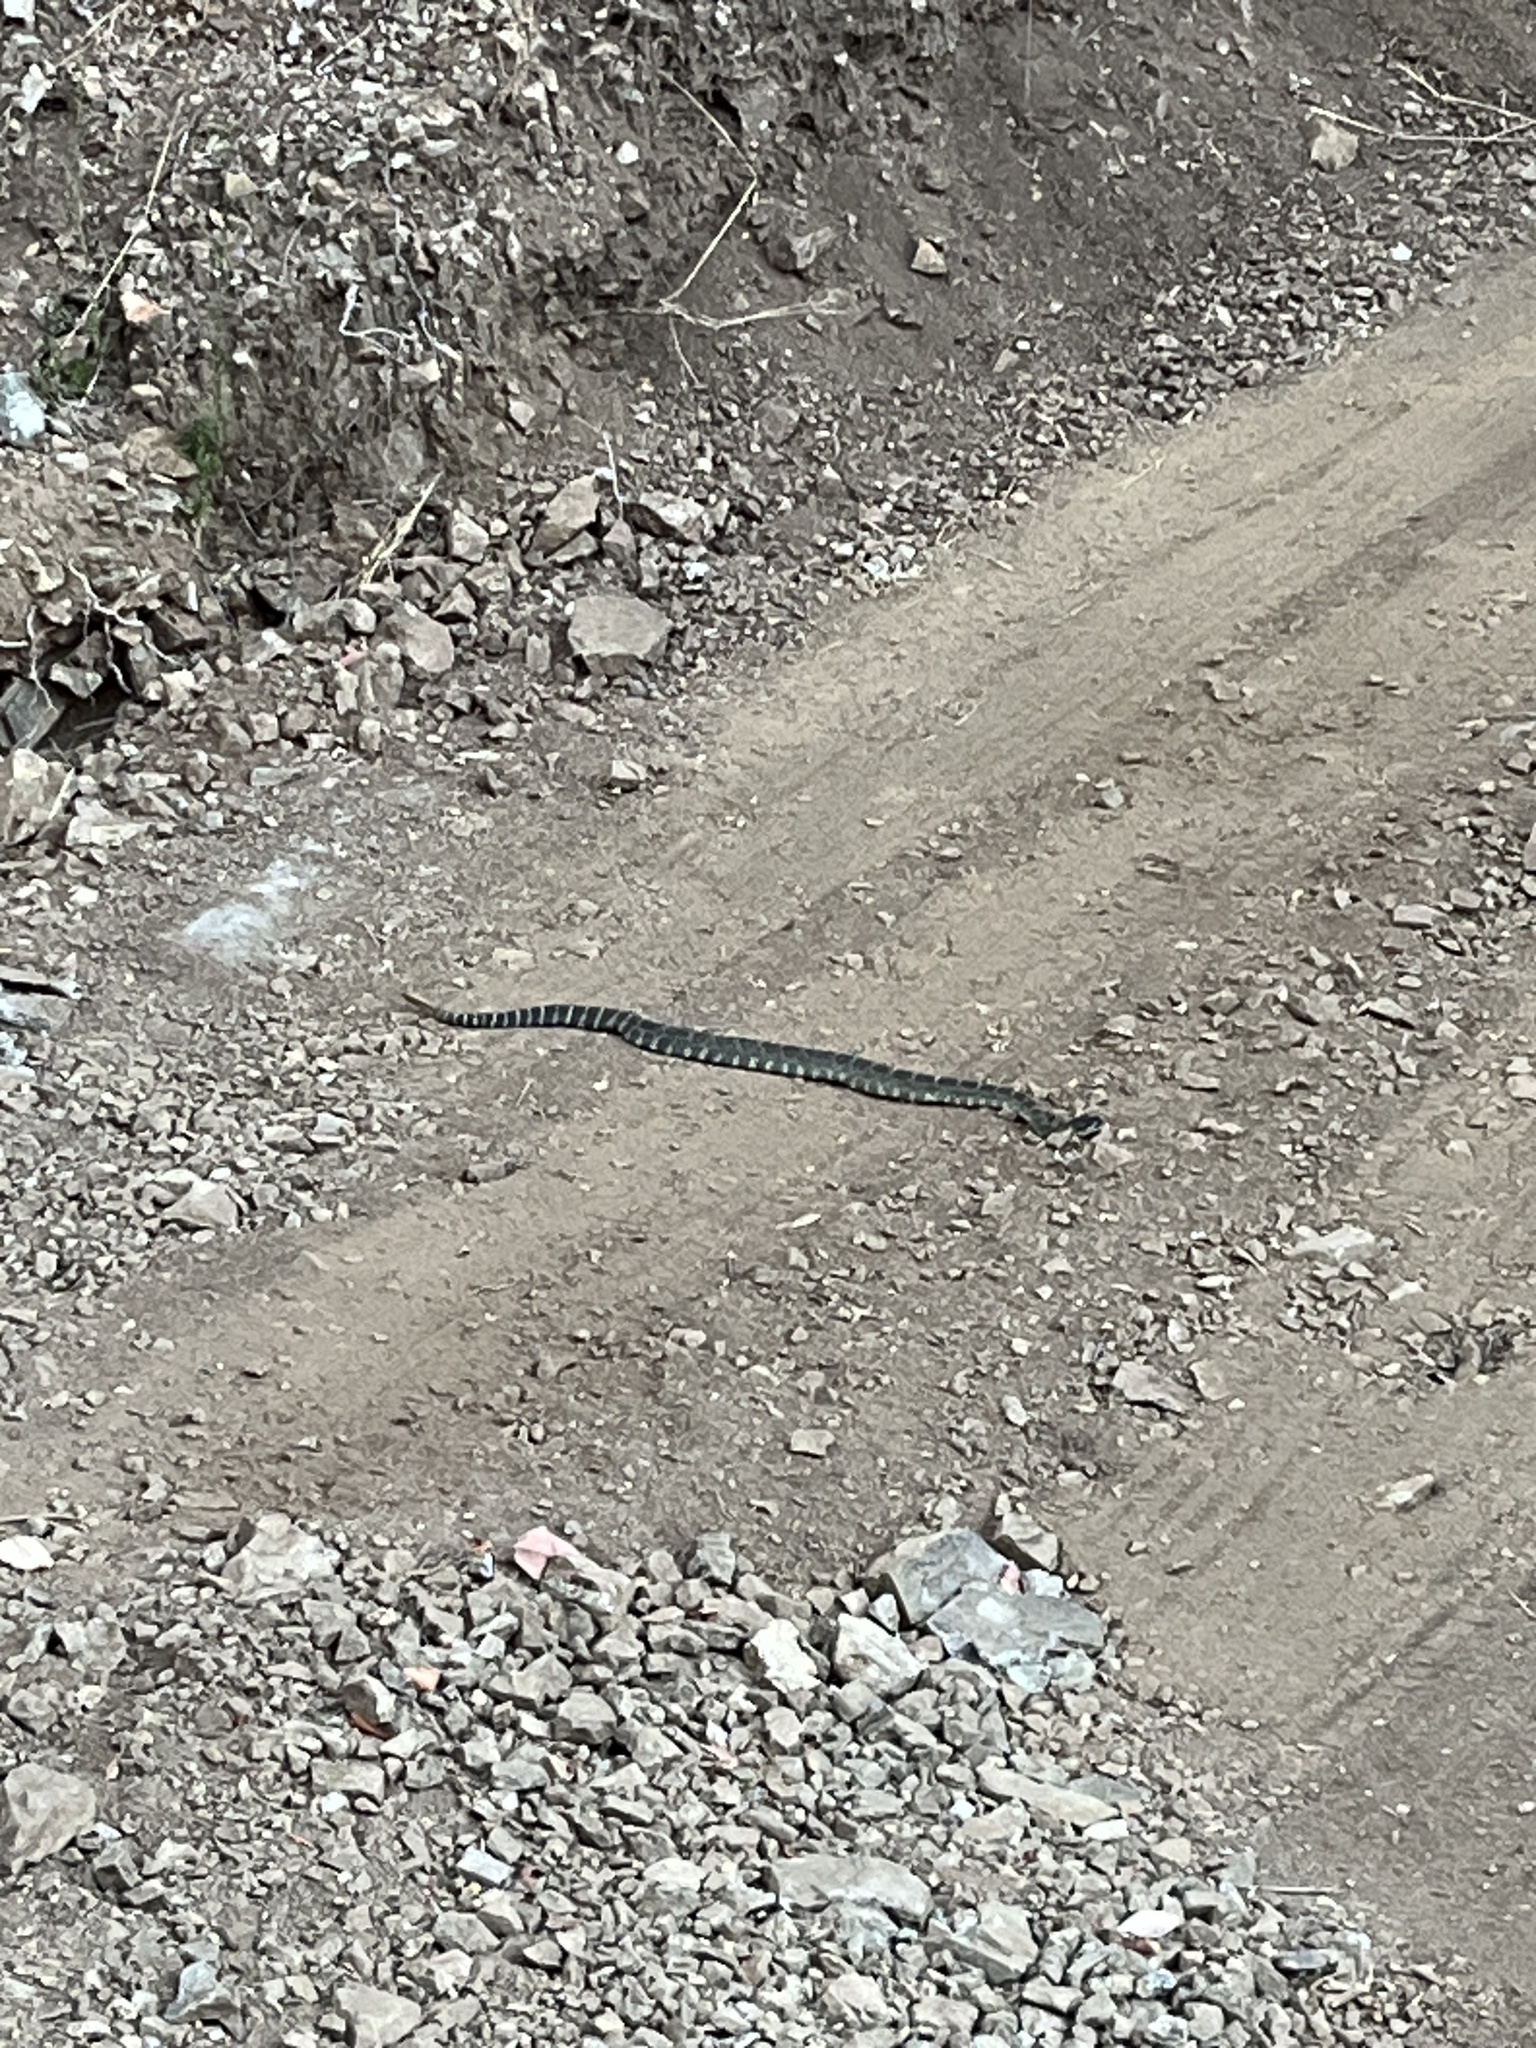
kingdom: Animalia
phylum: Chordata
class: Squamata
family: Viperidae
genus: Crotalus
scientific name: Crotalus oreganus
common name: Abyssus
